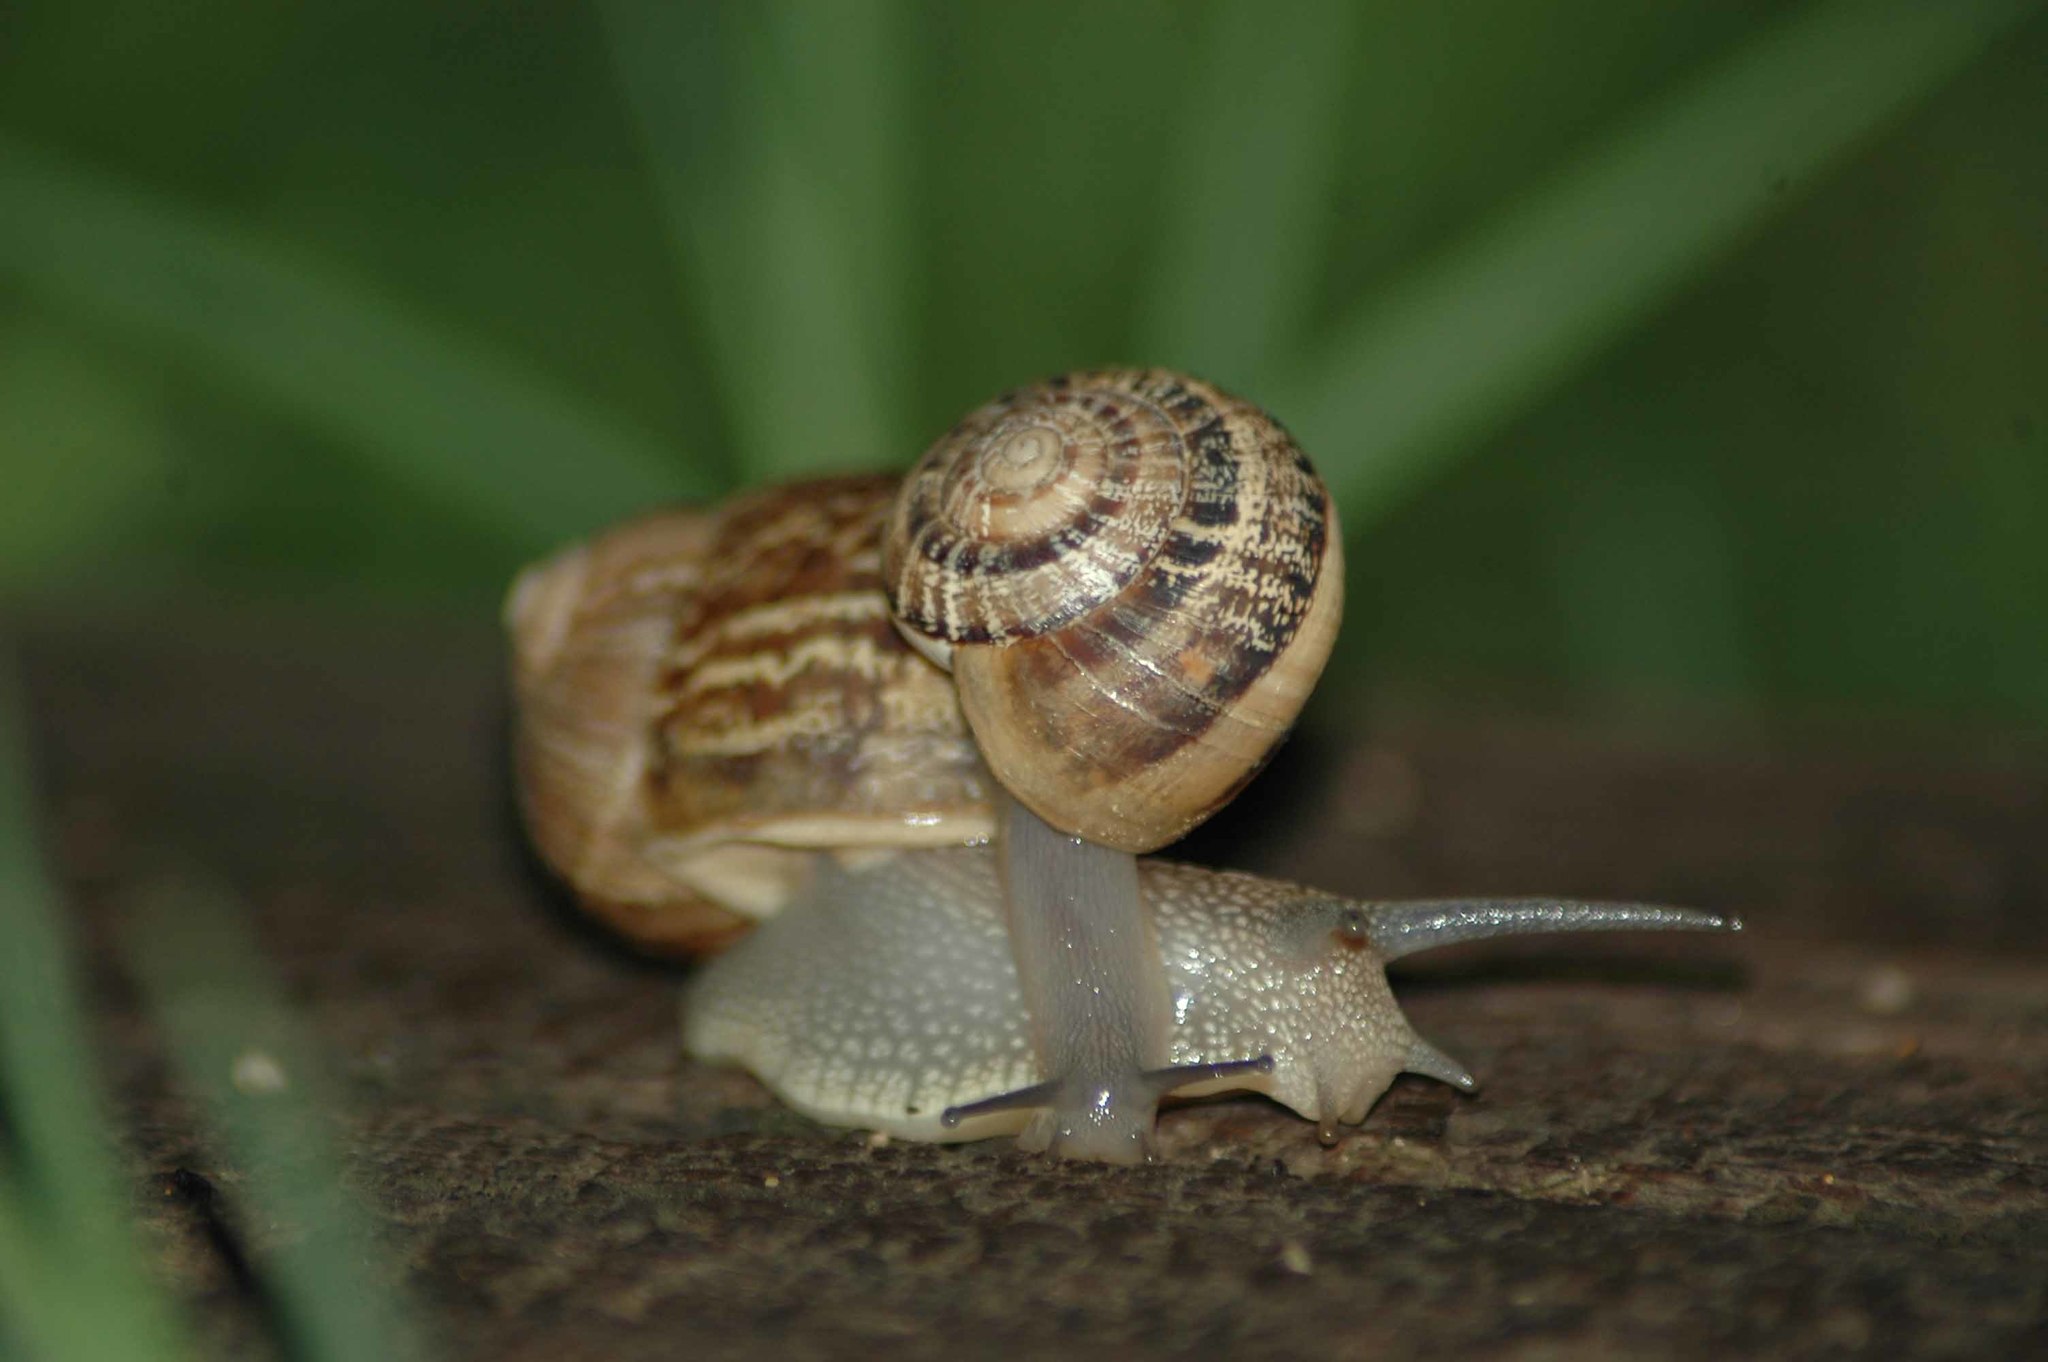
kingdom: Animalia
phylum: Mollusca
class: Gastropoda
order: Stylommatophora
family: Helicidae
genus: Cornu
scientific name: Cornu aspersum
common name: Brown garden snail
